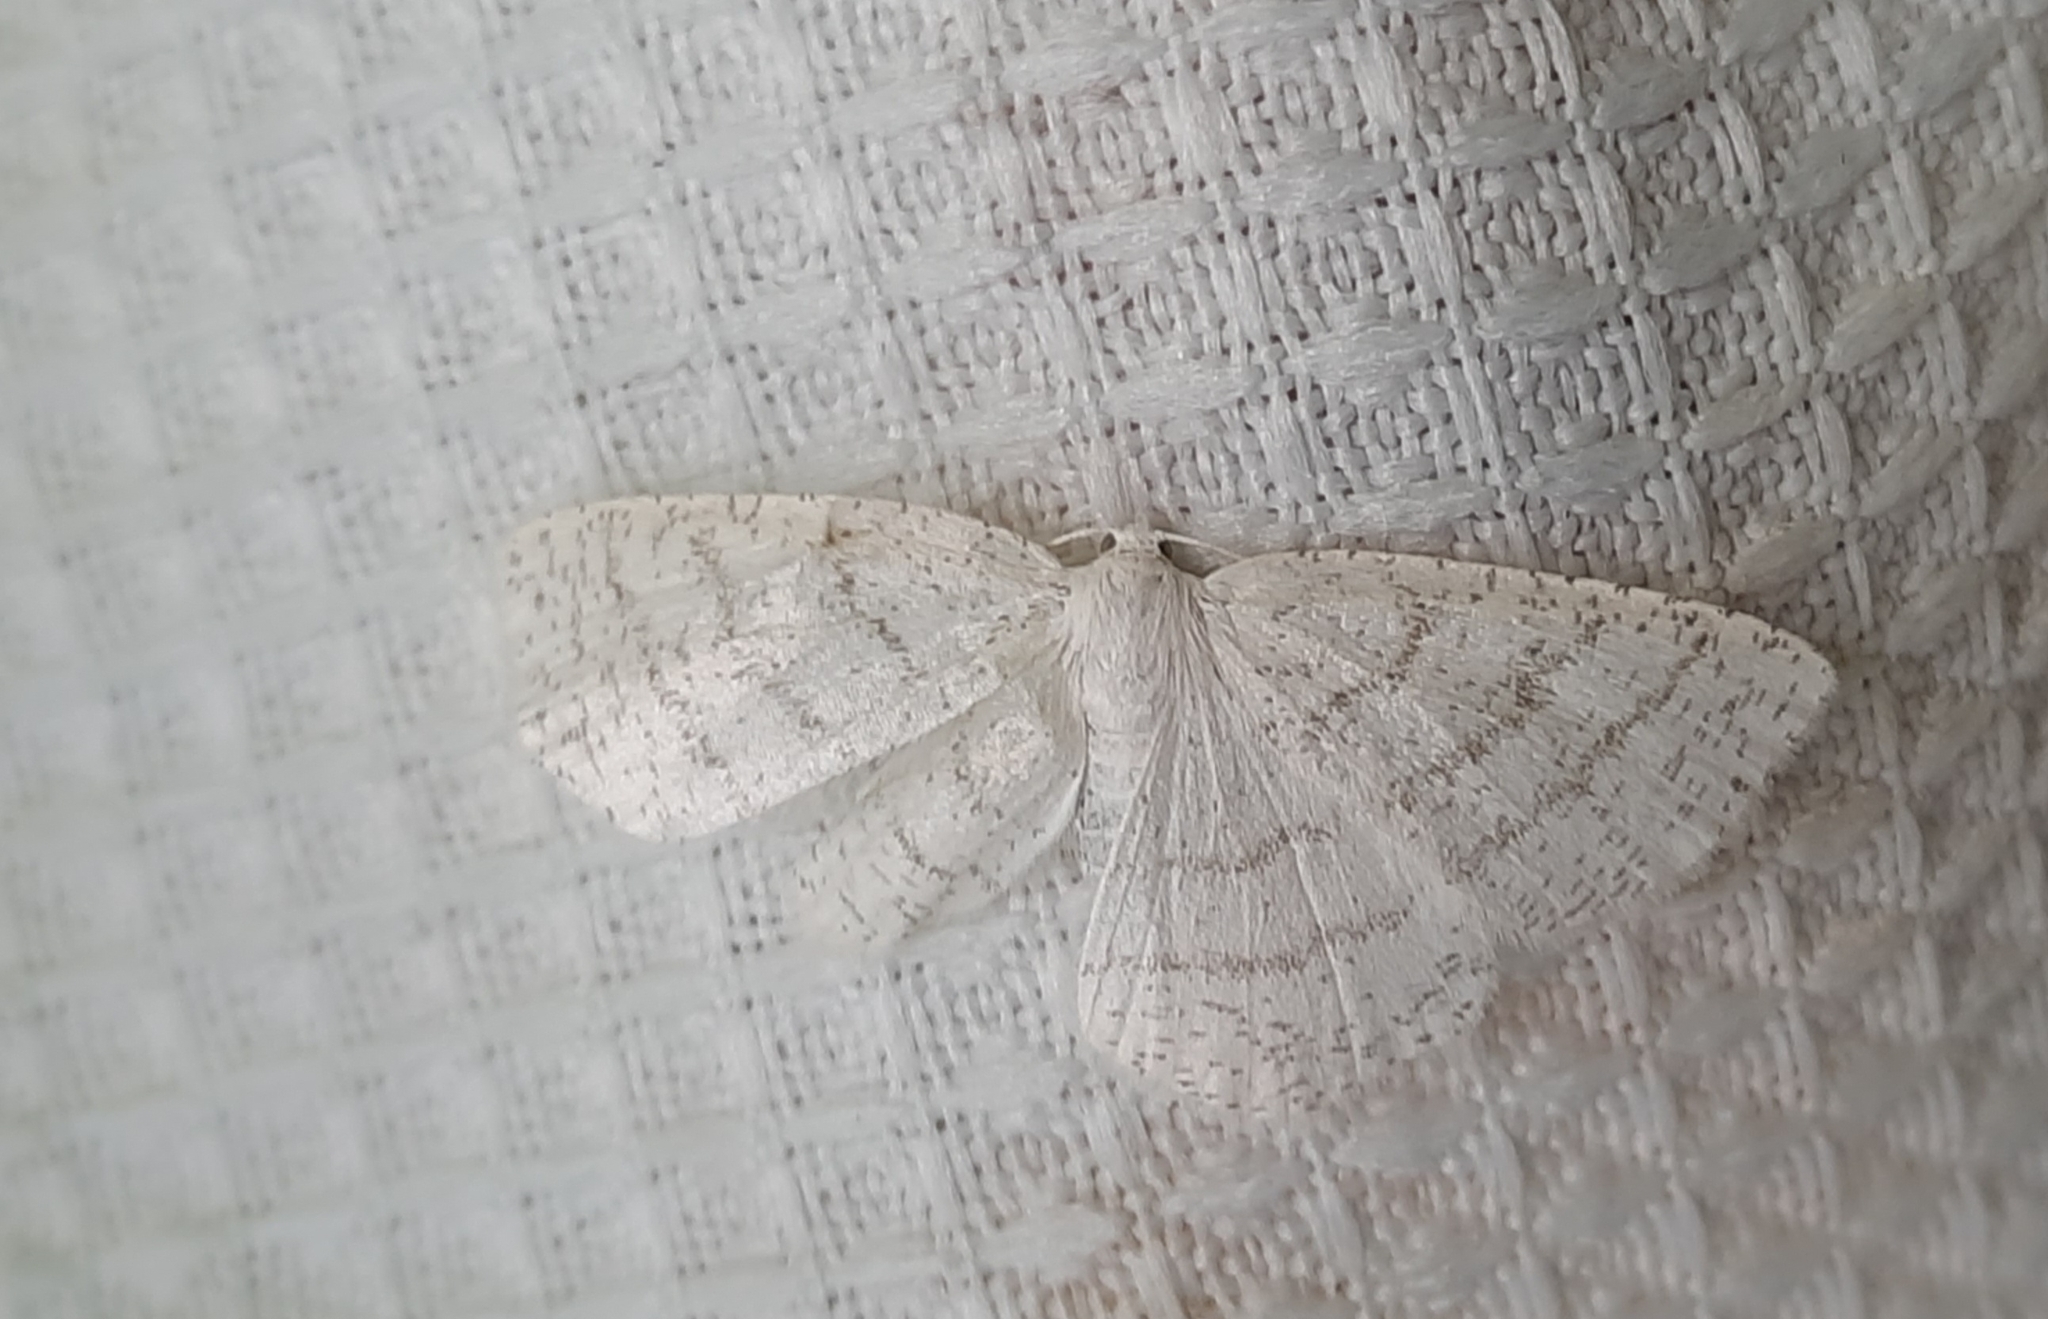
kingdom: Animalia
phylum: Arthropoda
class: Insecta
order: Lepidoptera
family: Geometridae
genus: Cabera
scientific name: Cabera pusaria
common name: Common white wave
